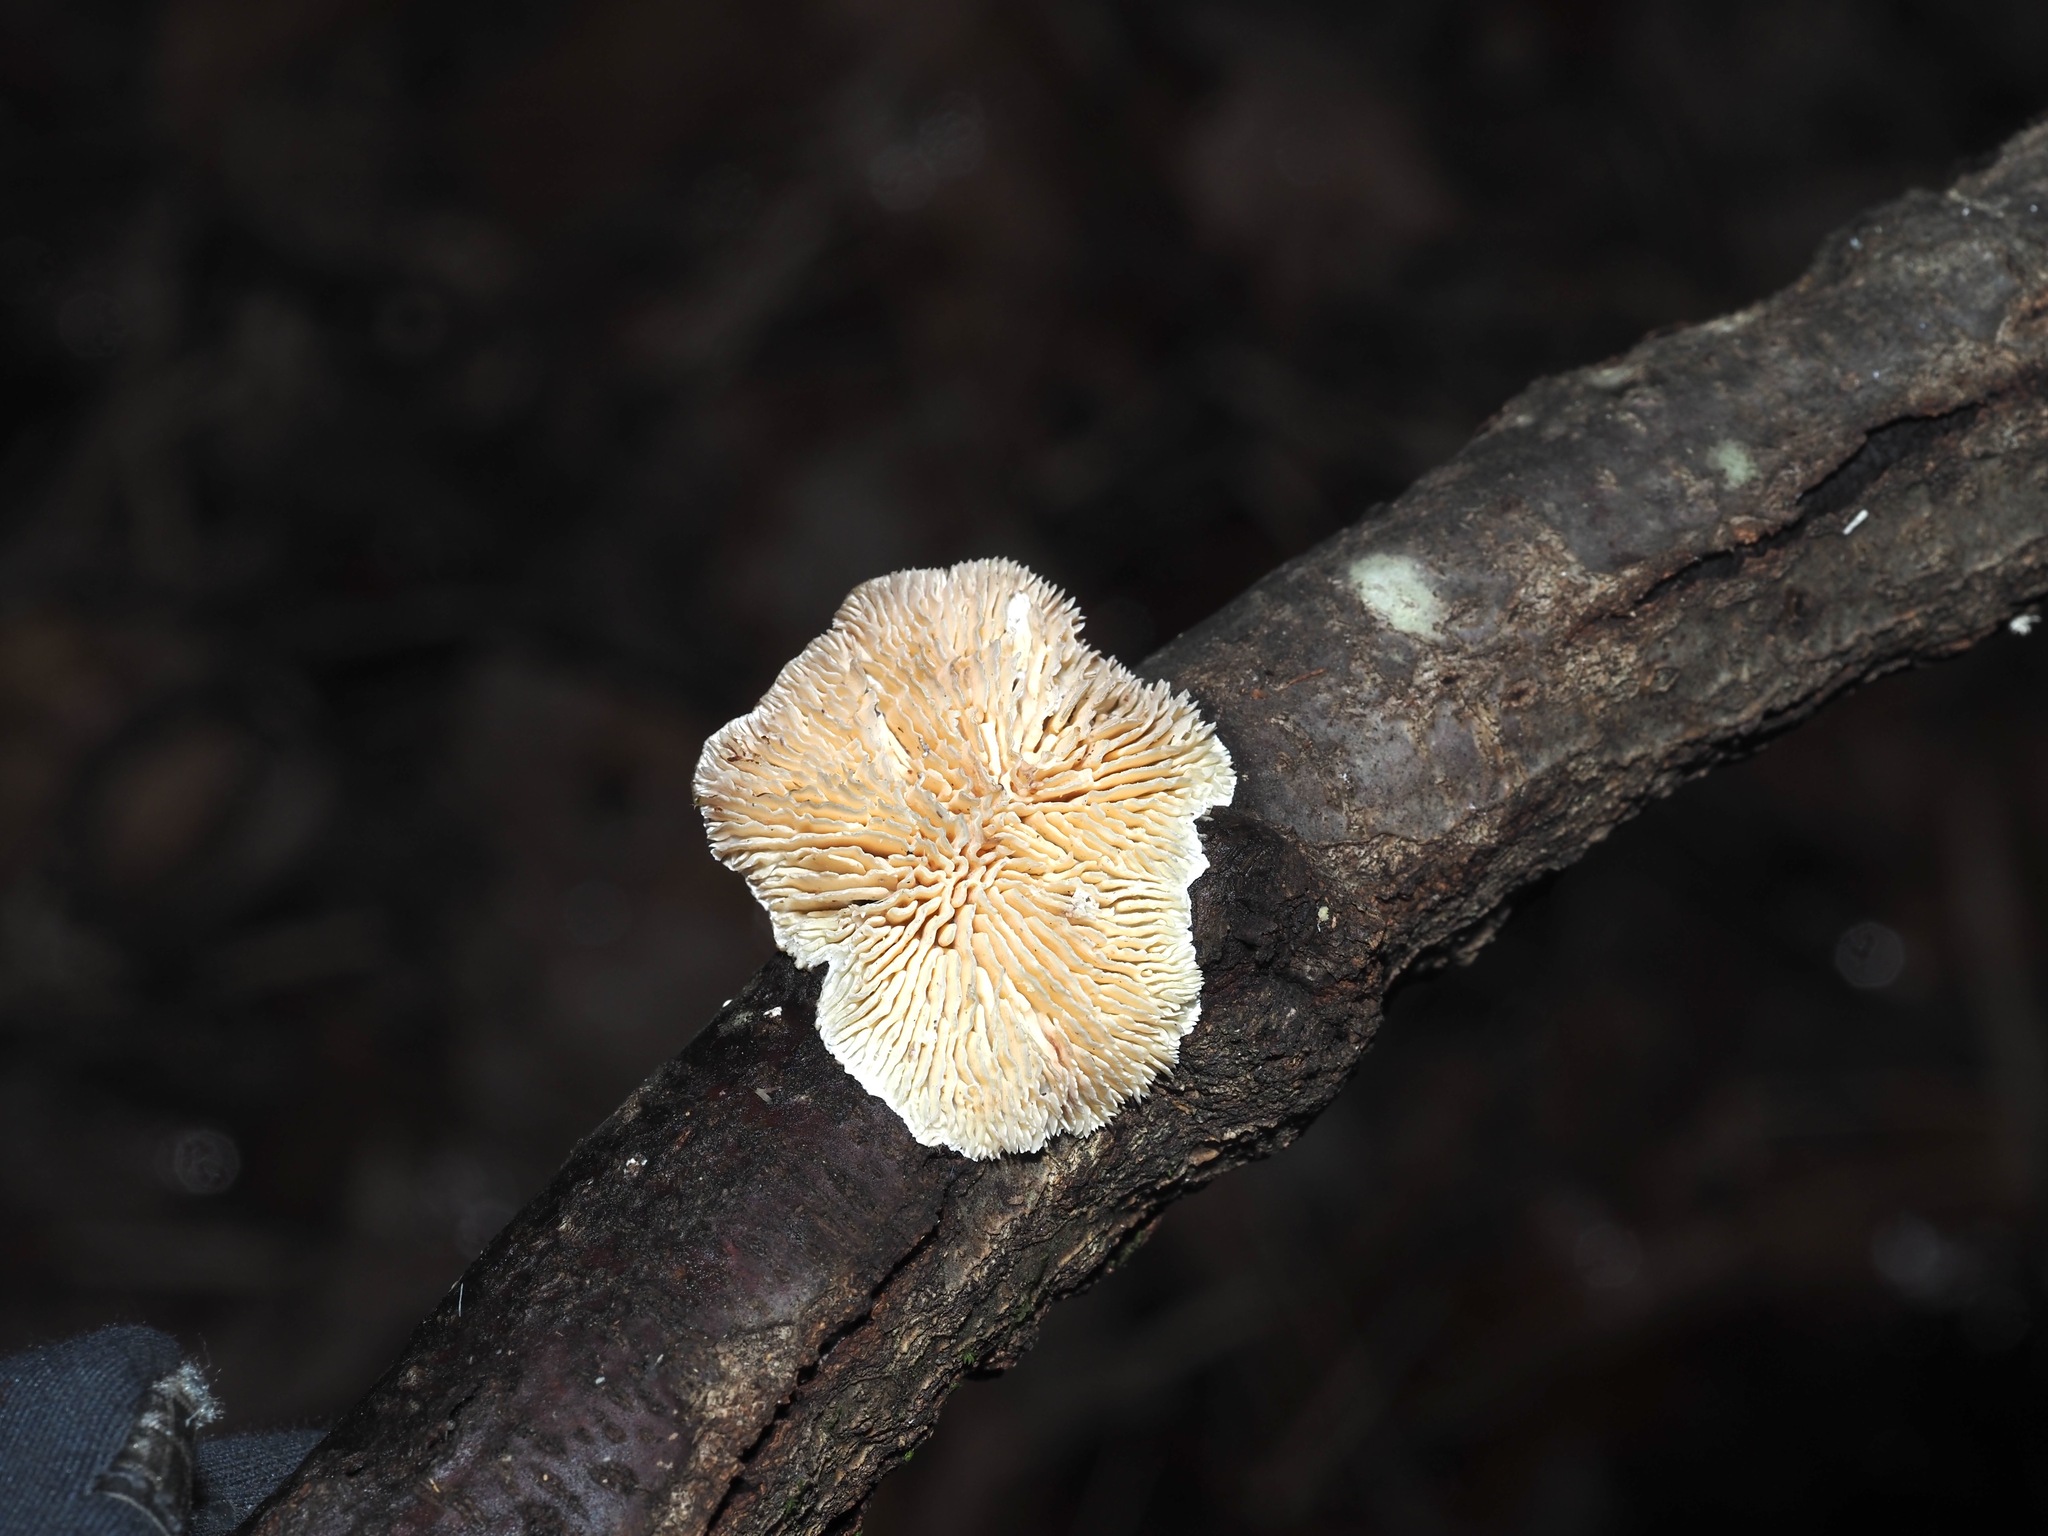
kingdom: Fungi
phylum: Basidiomycota
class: Agaricomycetes
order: Polyporales
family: Polyporaceae
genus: Lenzites
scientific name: Lenzites betulinus
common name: Birch mazegill
